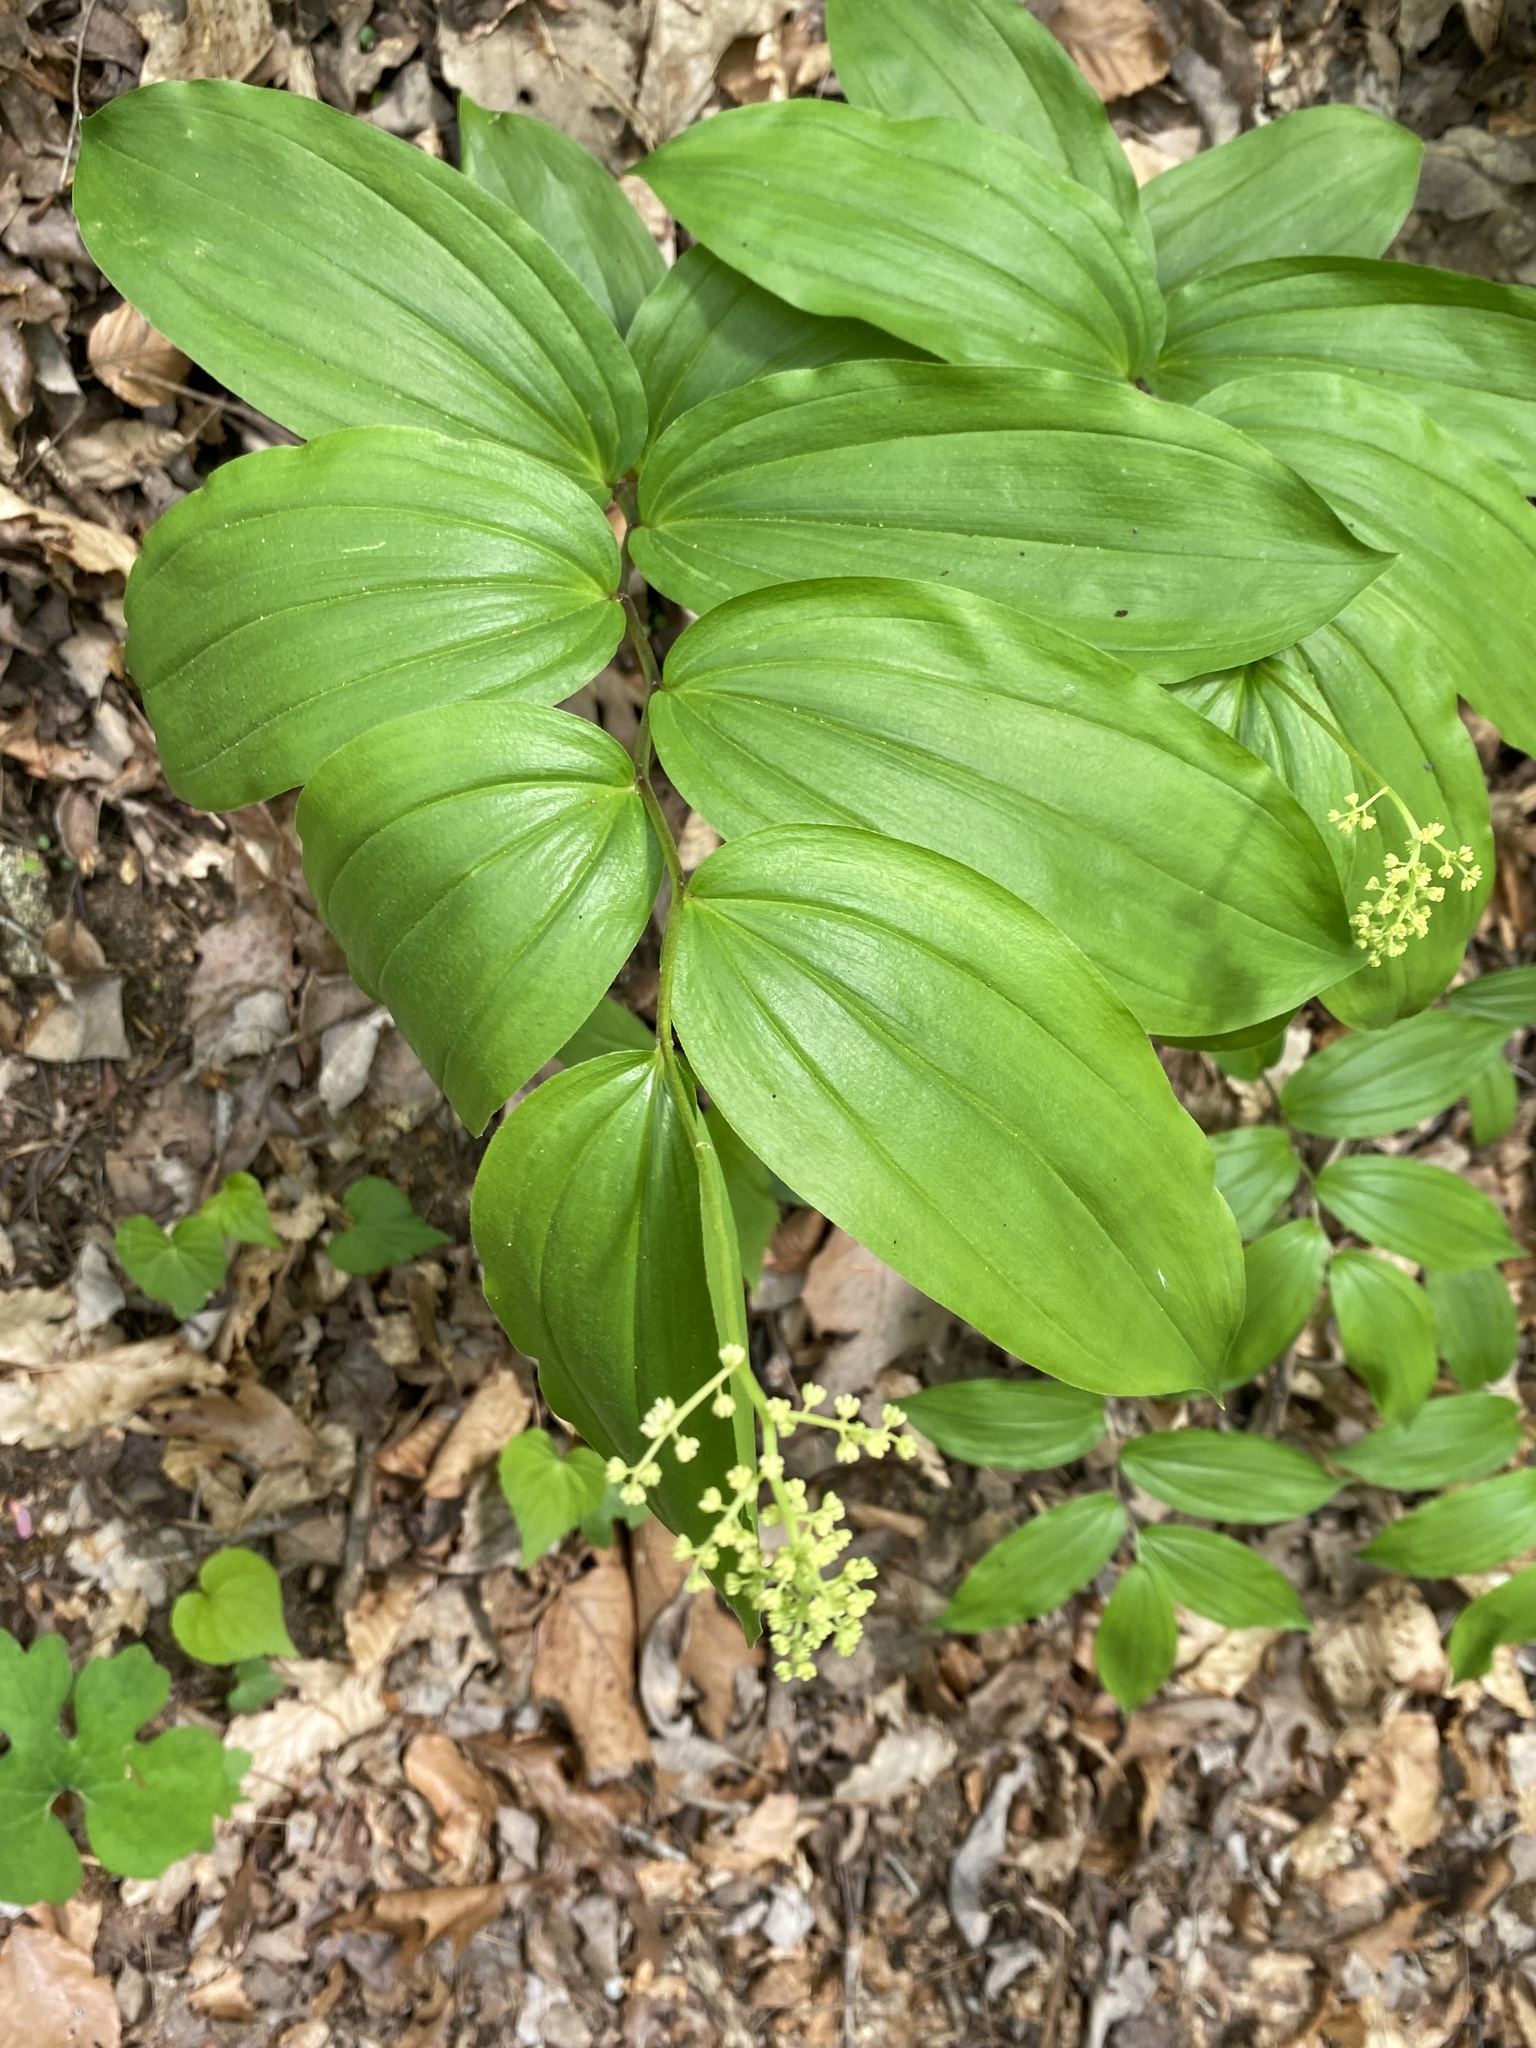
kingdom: Plantae
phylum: Tracheophyta
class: Liliopsida
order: Asparagales
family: Asparagaceae
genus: Maianthemum
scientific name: Maianthemum racemosum
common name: False spikenard
